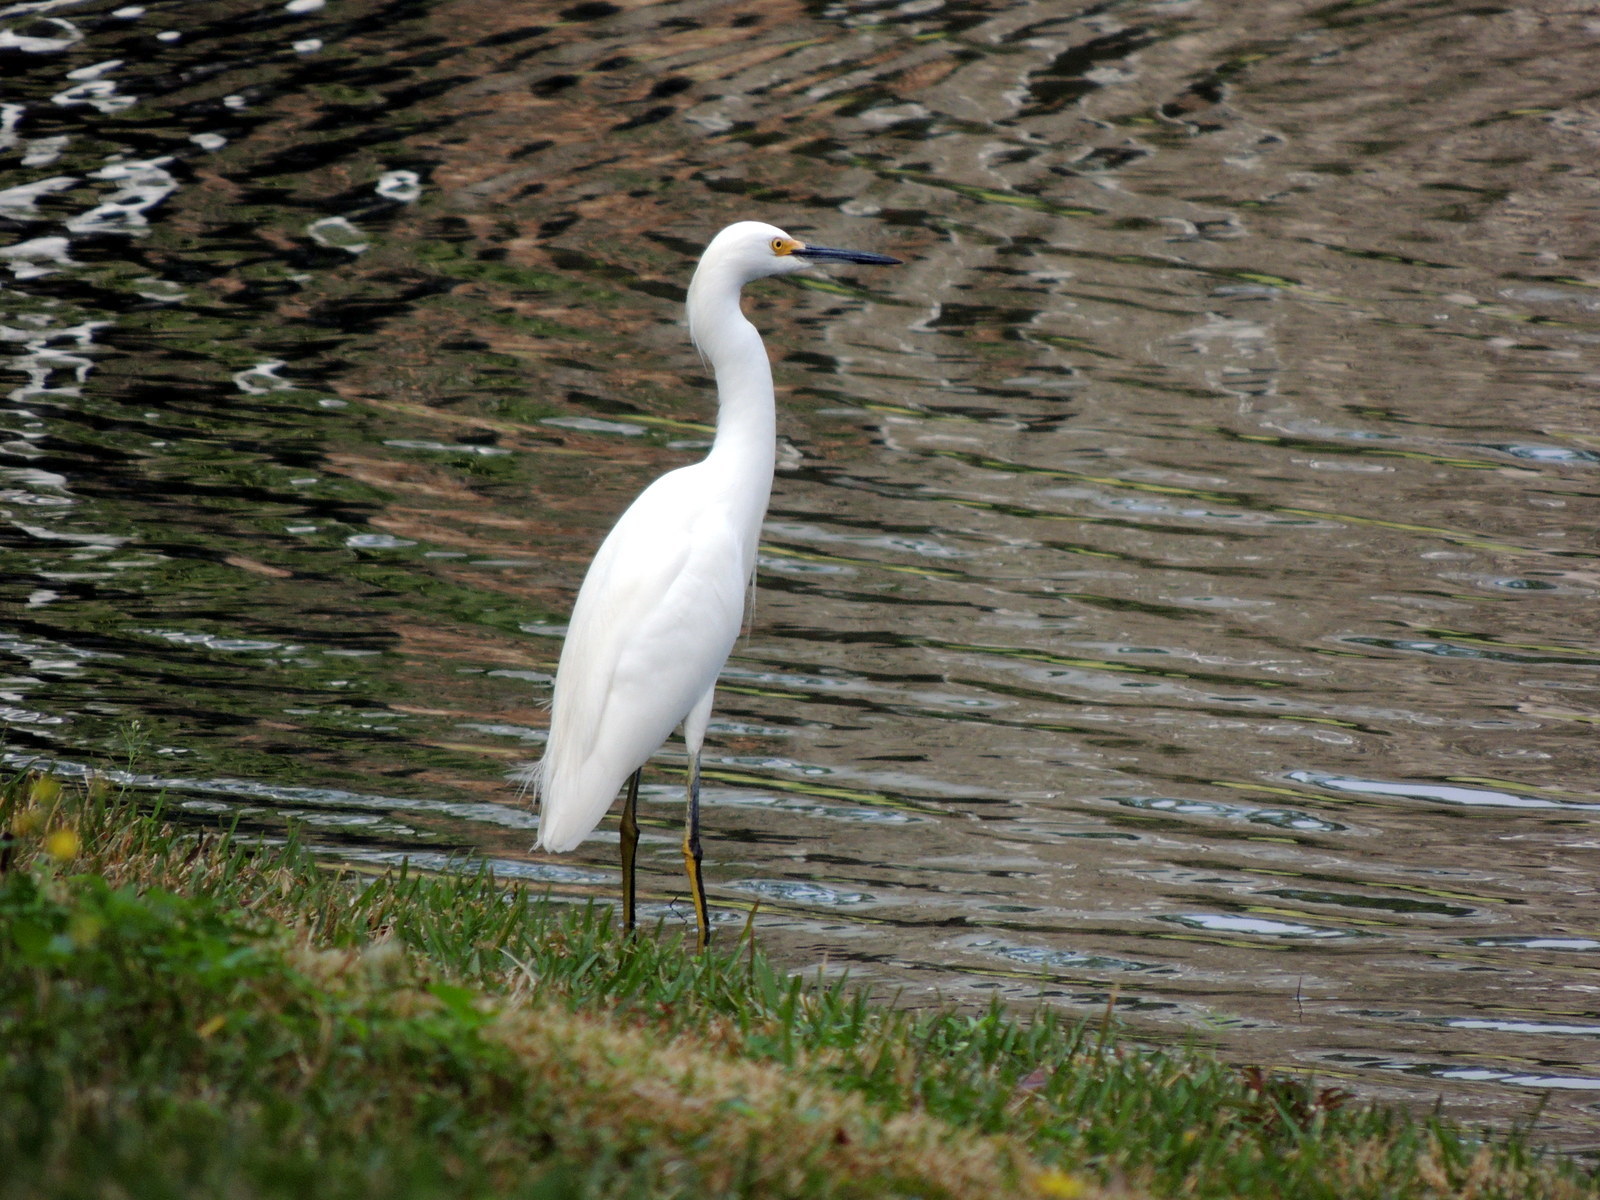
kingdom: Animalia
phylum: Chordata
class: Aves
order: Pelecaniformes
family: Ardeidae
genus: Egretta
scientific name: Egretta thula
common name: Snowy egret
